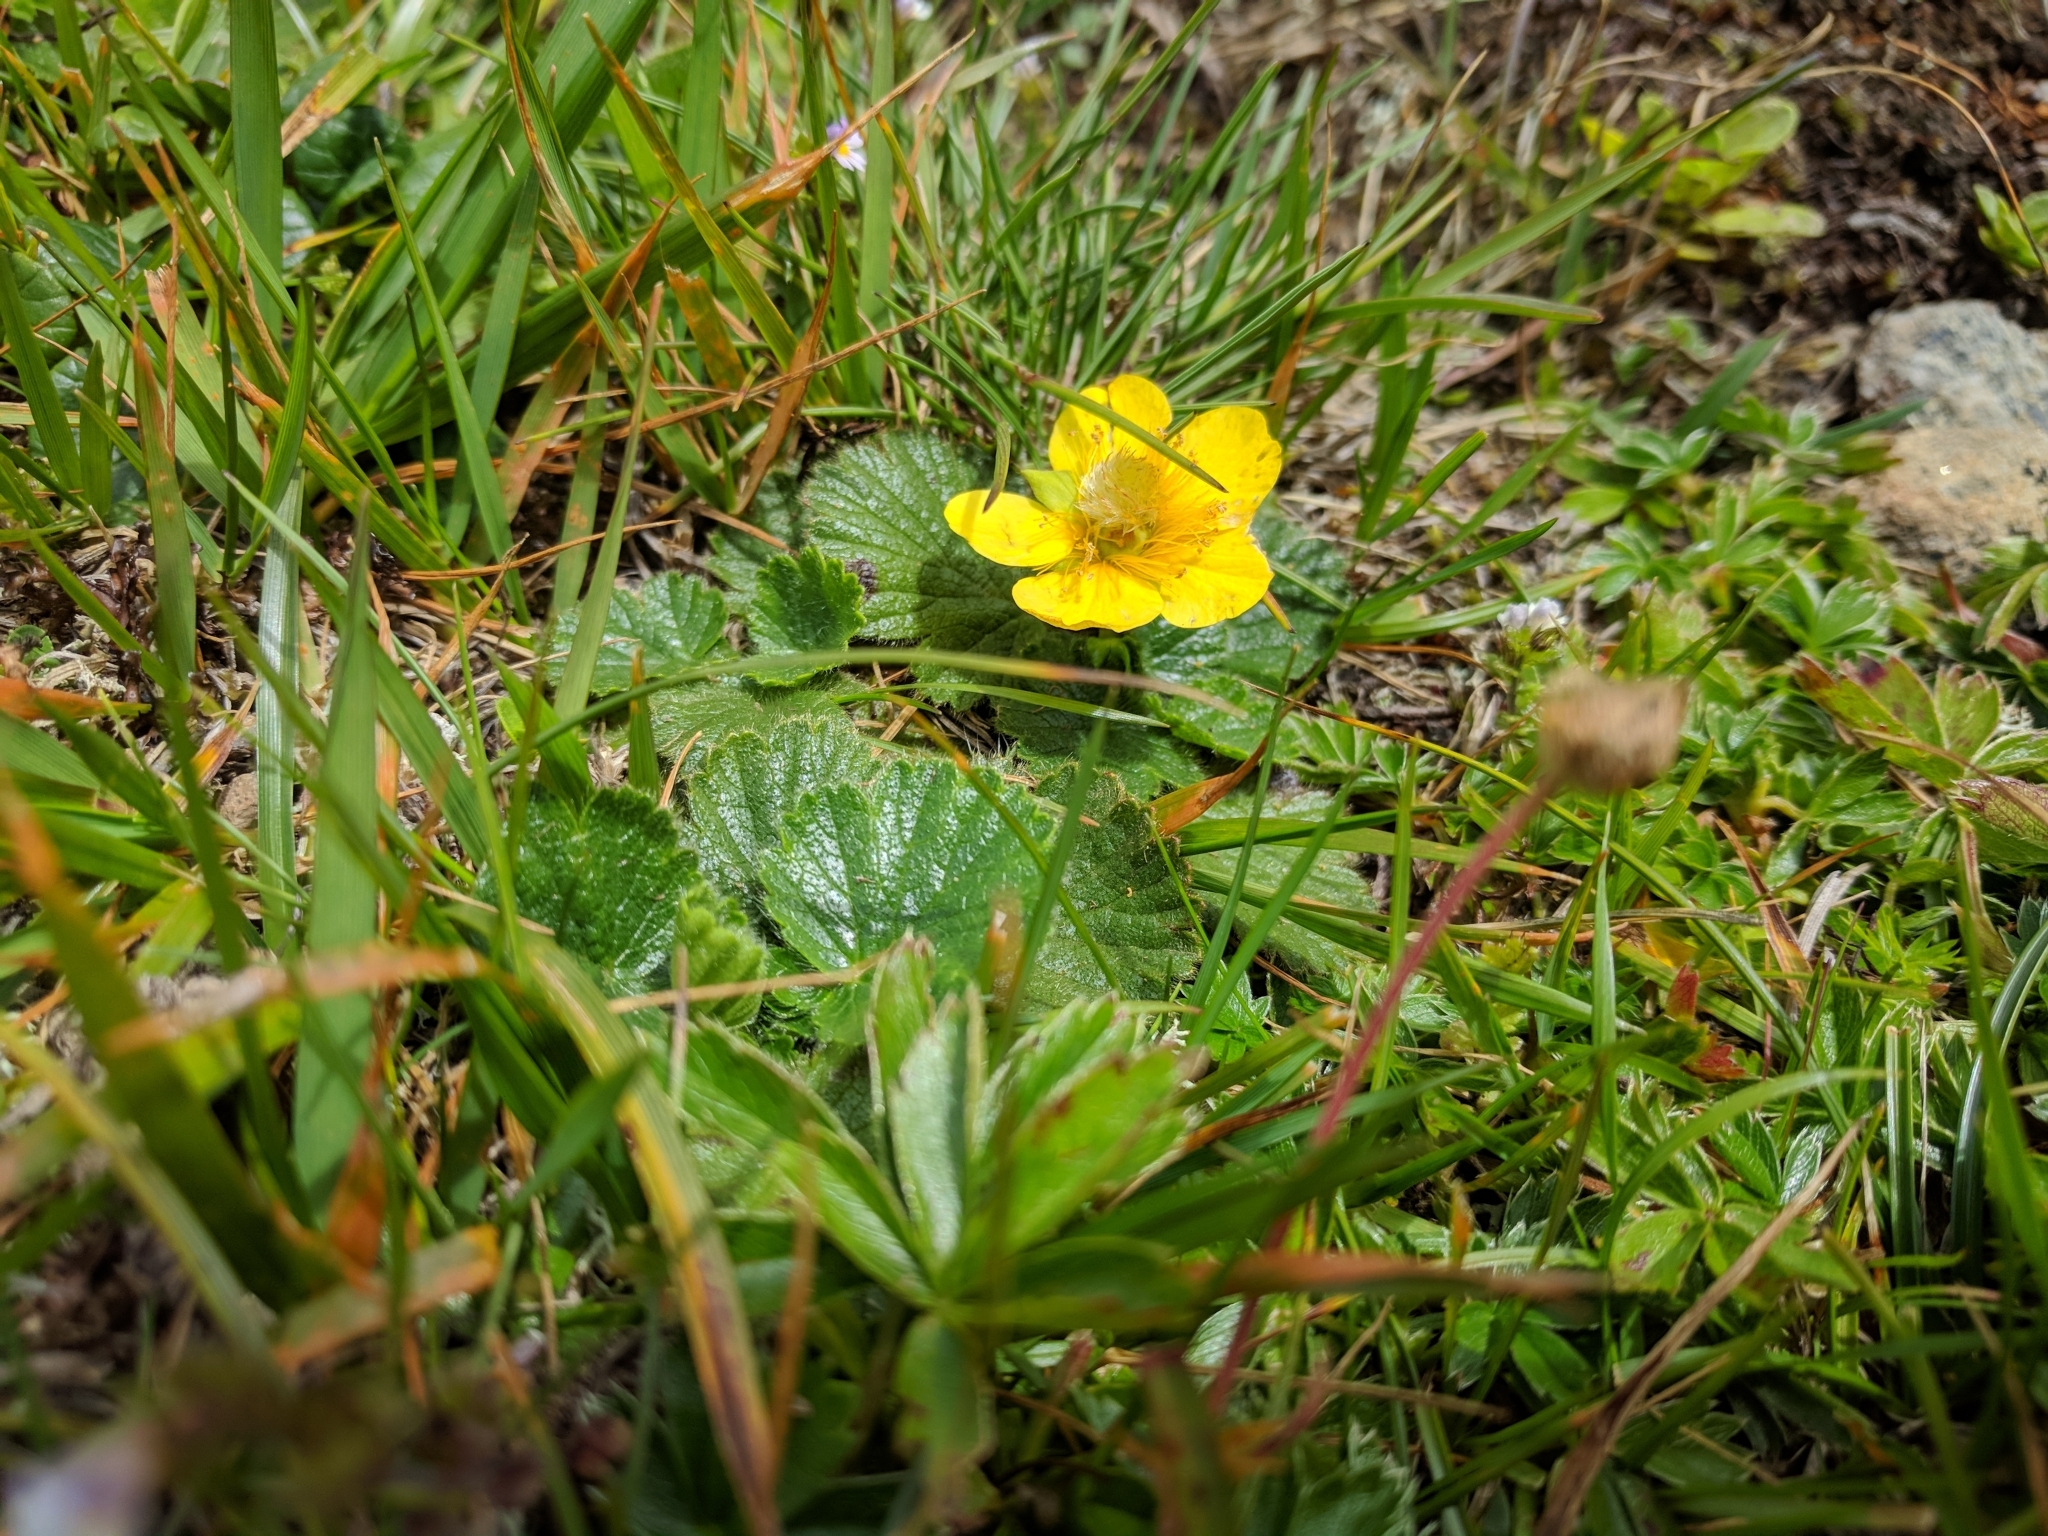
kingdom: Plantae
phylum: Tracheophyta
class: Magnoliopsida
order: Rosales
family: Rosaceae
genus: Geum
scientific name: Geum montanum
